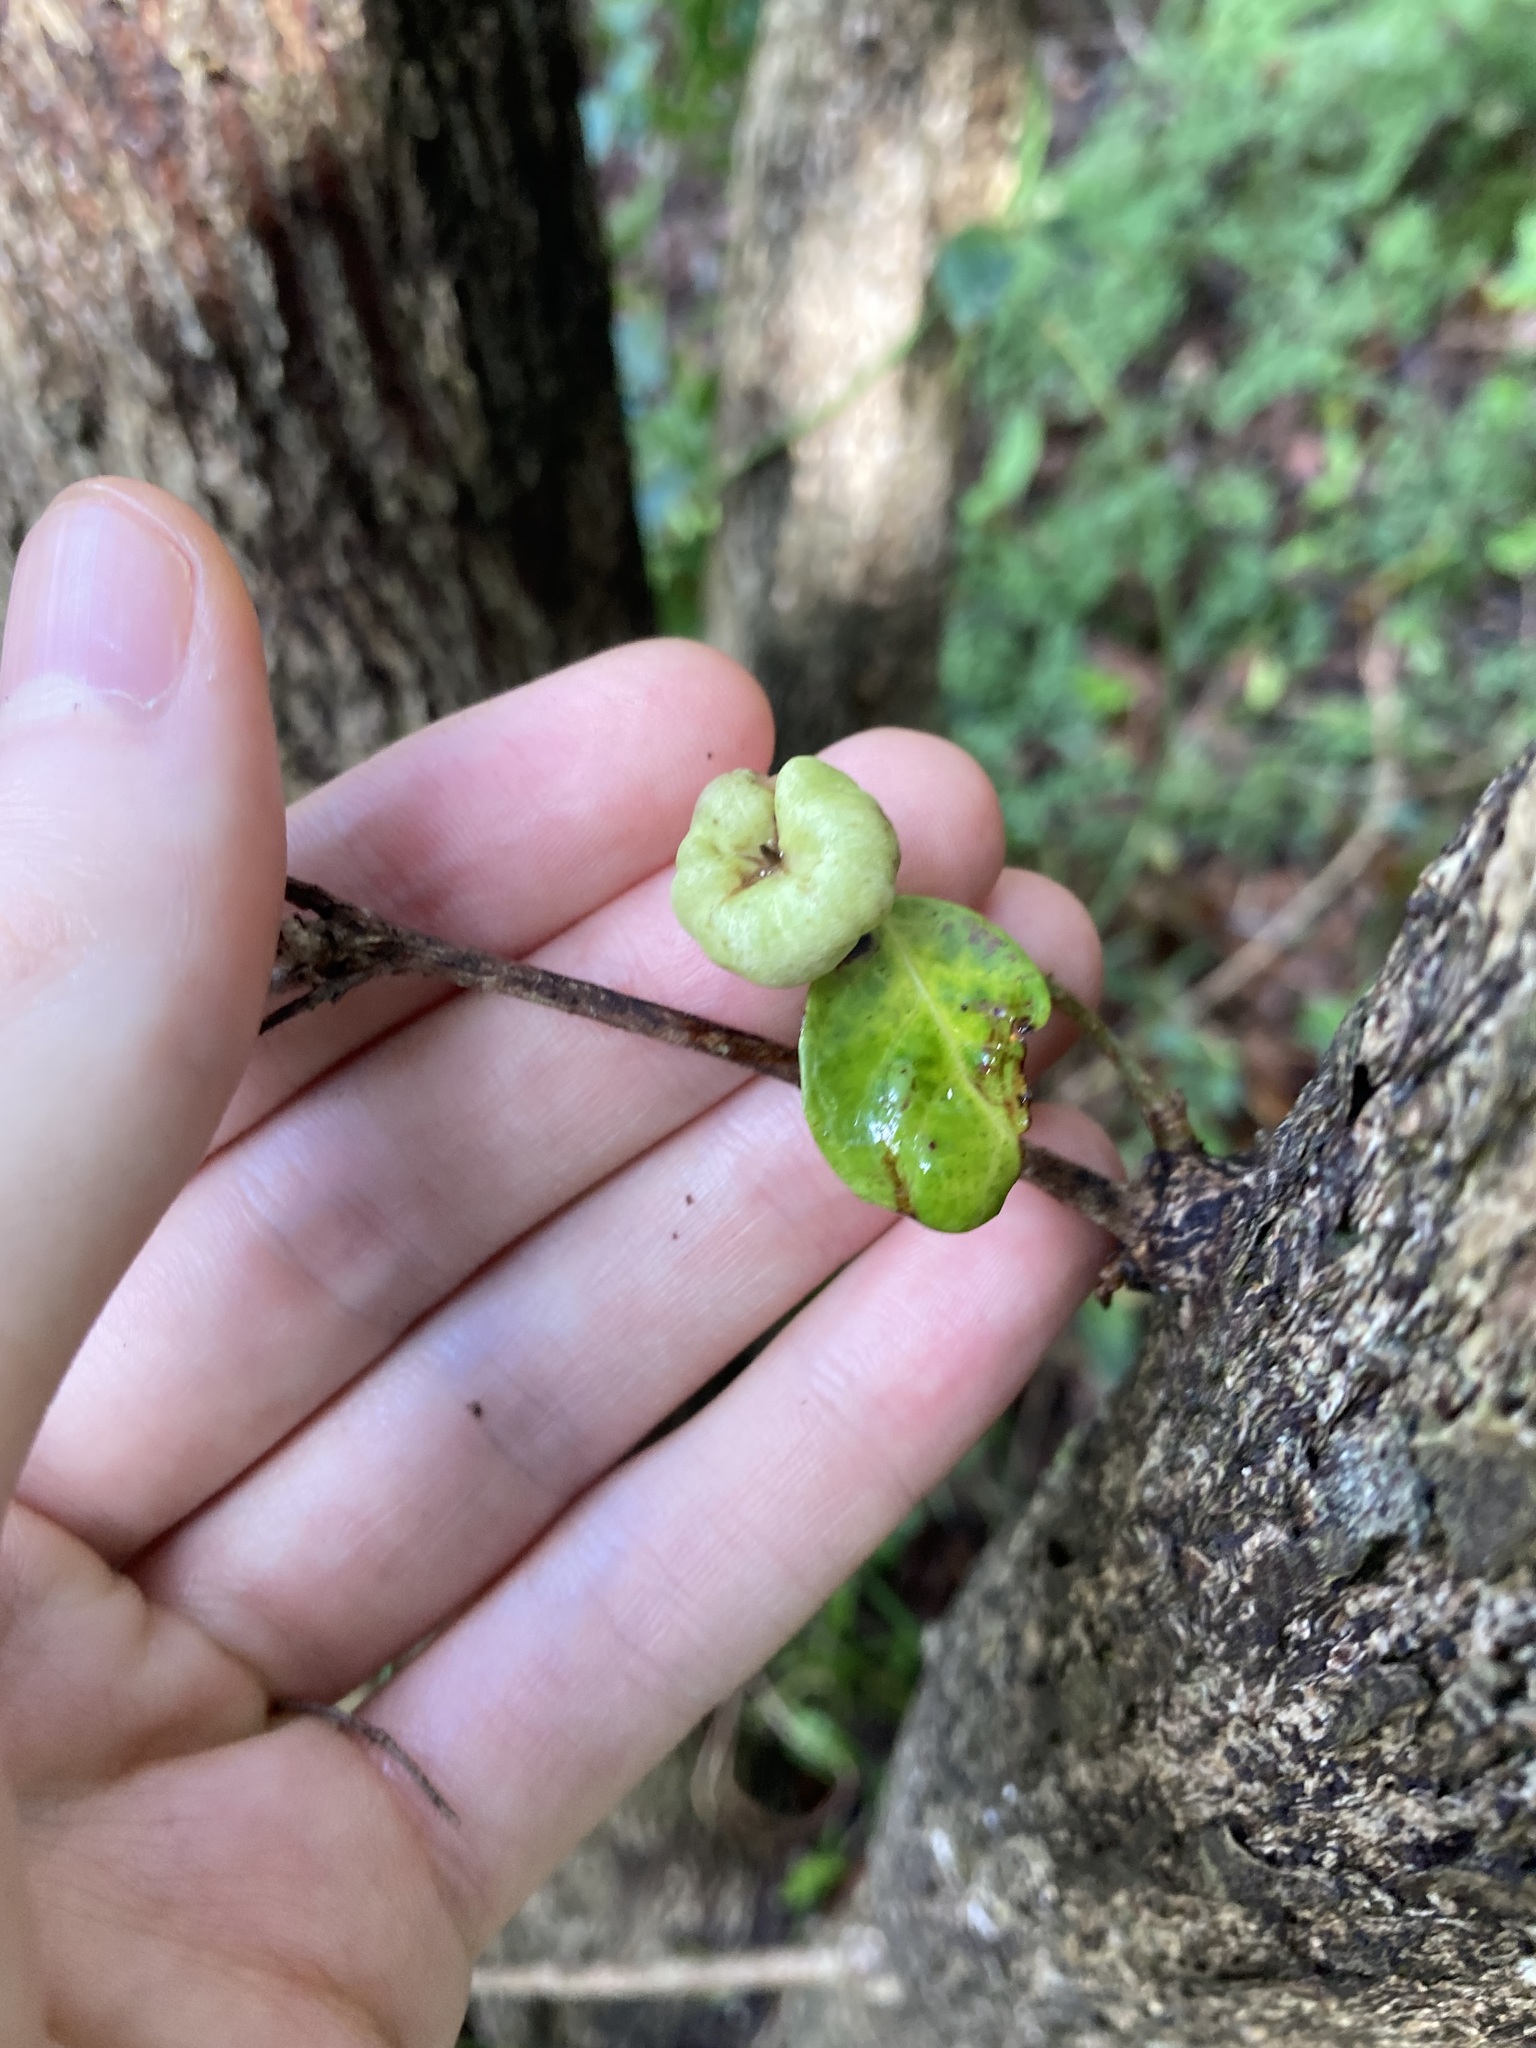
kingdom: Plantae
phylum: Tracheophyta
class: Magnoliopsida
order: Malpighiales
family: Phyllanthaceae
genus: Glochidion
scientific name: Glochidion ferdinandi
